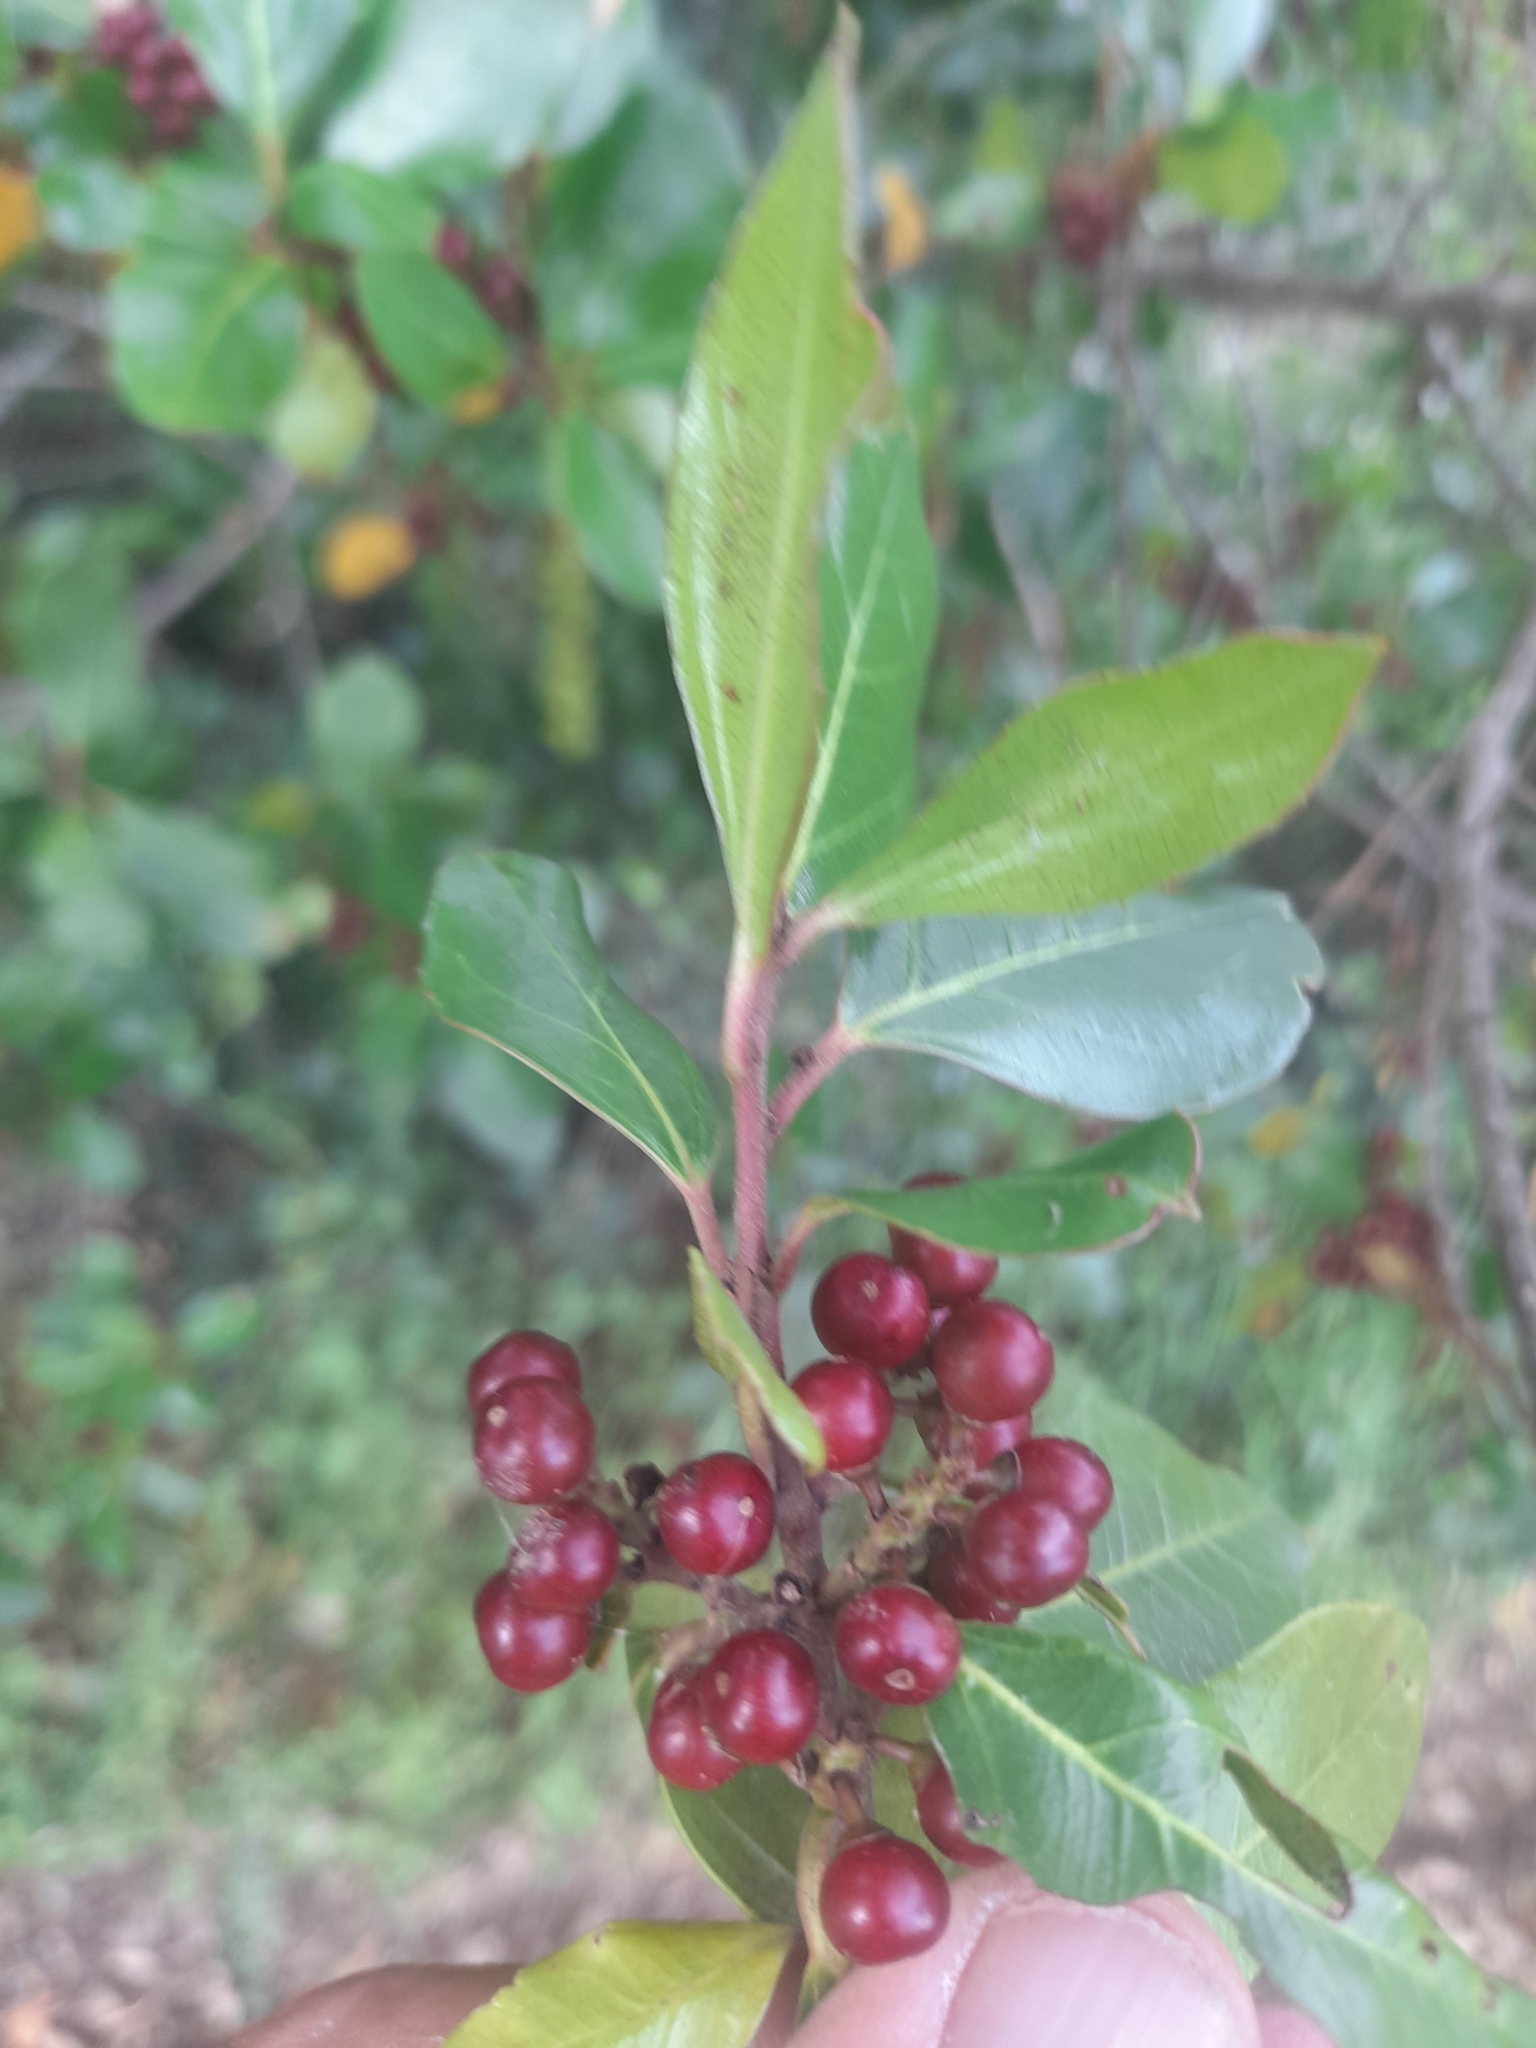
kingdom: Plantae
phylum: Tracheophyta
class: Magnoliopsida
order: Rosales
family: Rhamnaceae
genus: Rhamnus
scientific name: Rhamnus alaternus
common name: Mediterranean buckthorn
